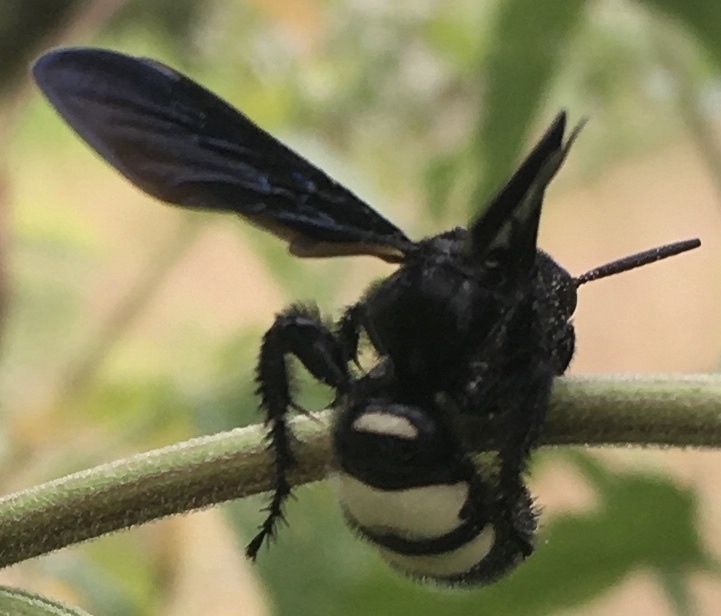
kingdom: Animalia
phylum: Arthropoda
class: Insecta
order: Hymenoptera
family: Scoliidae
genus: Scolia
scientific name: Scolia bicincta
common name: Double-banded scoliid wasp
